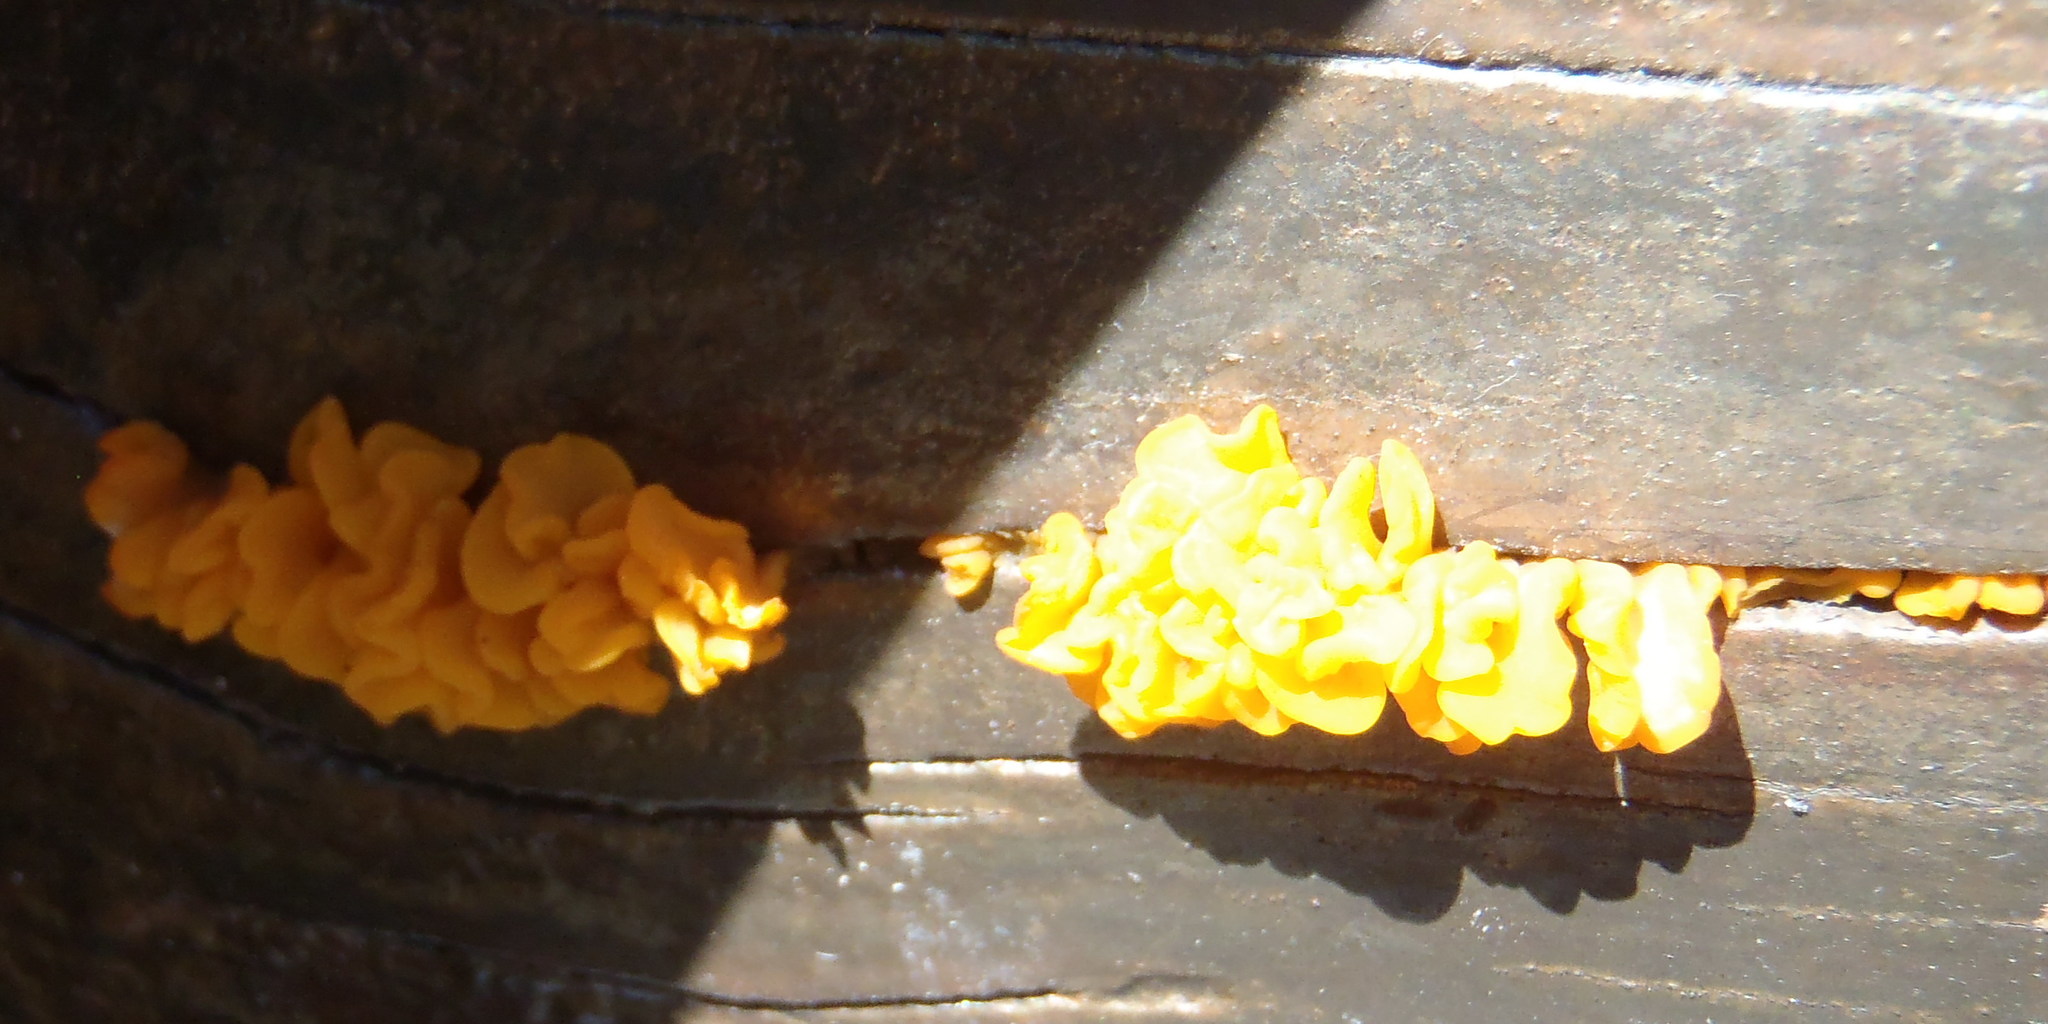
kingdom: Fungi
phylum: Basidiomycota
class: Dacrymycetes
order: Dacrymycetales
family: Dacrymycetaceae
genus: Dacrymyces
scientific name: Dacrymyces spathularius
